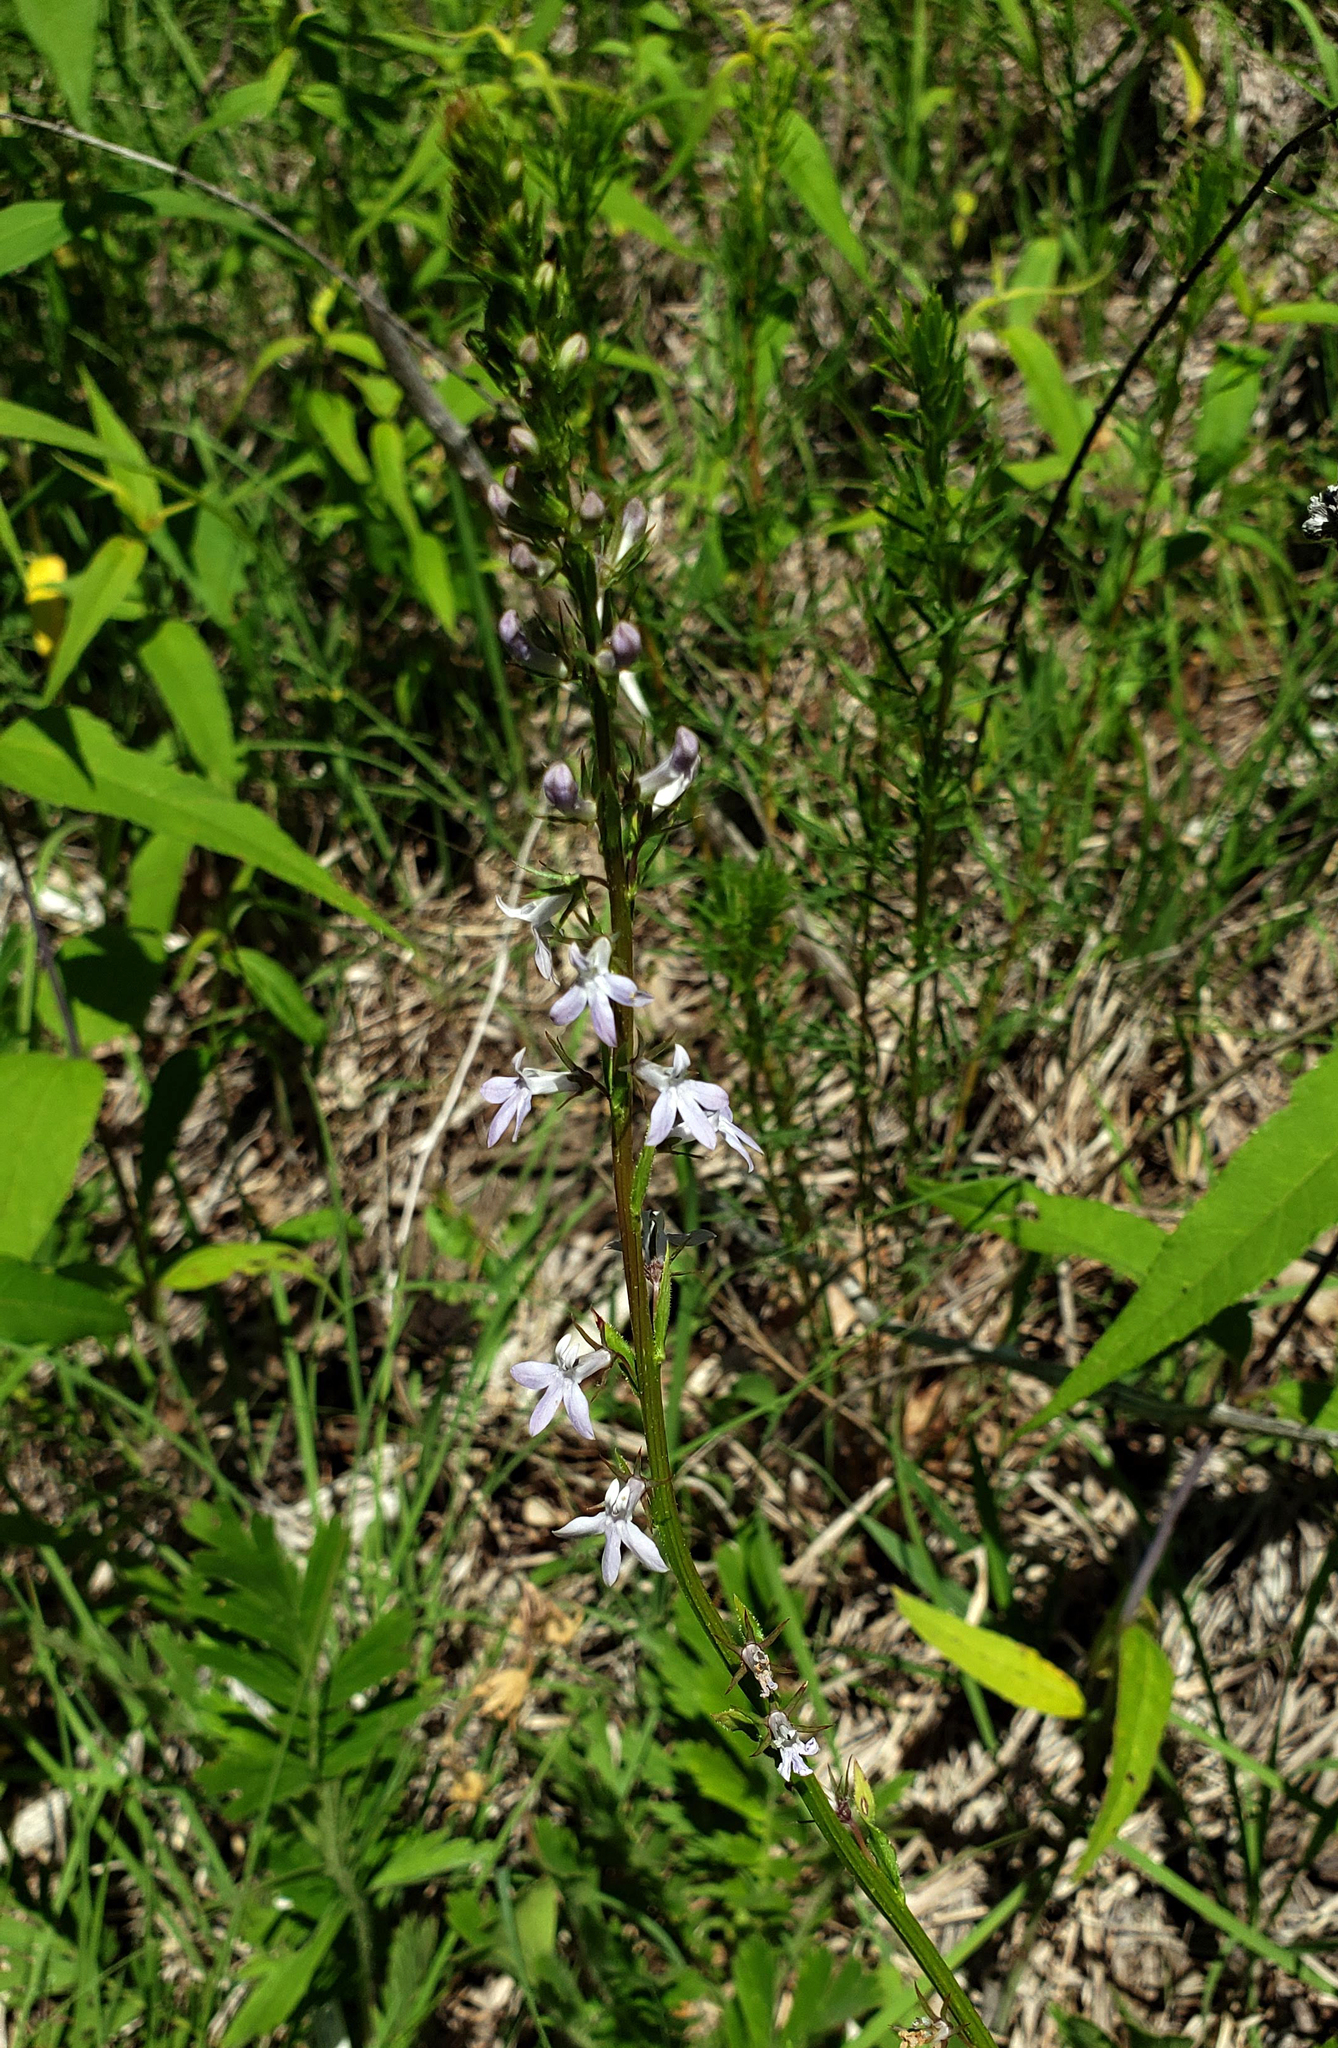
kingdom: Plantae
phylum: Tracheophyta
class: Magnoliopsida
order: Asterales
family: Campanulaceae
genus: Lobelia
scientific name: Lobelia spicata
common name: Pale-spike lobelia
